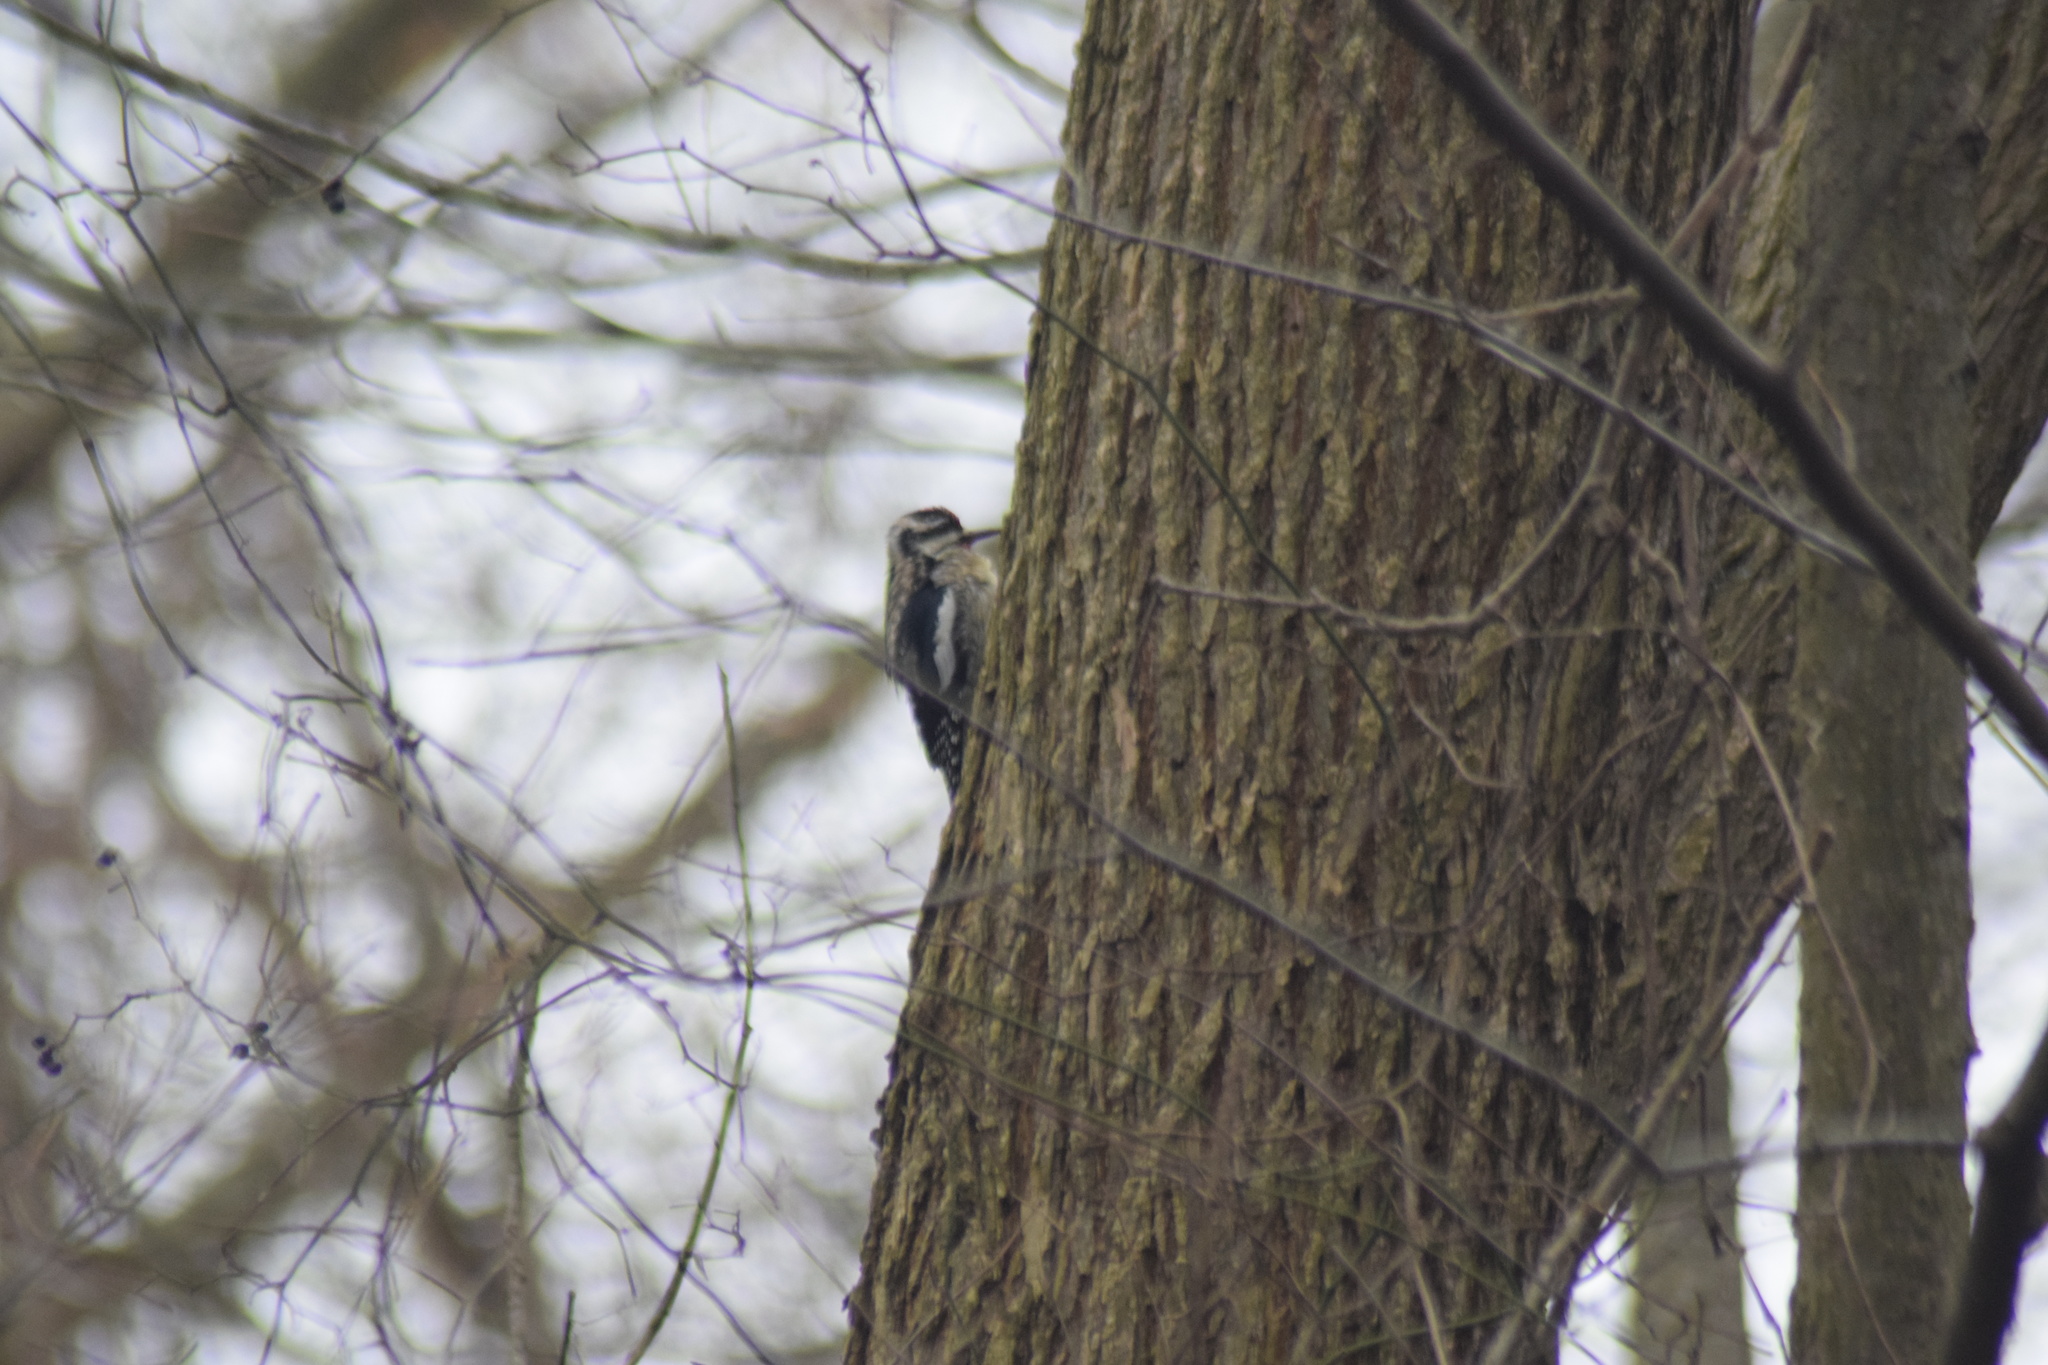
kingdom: Animalia
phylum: Chordata
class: Aves
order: Piciformes
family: Picidae
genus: Sphyrapicus
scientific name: Sphyrapicus varius
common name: Yellow-bellied sapsucker
